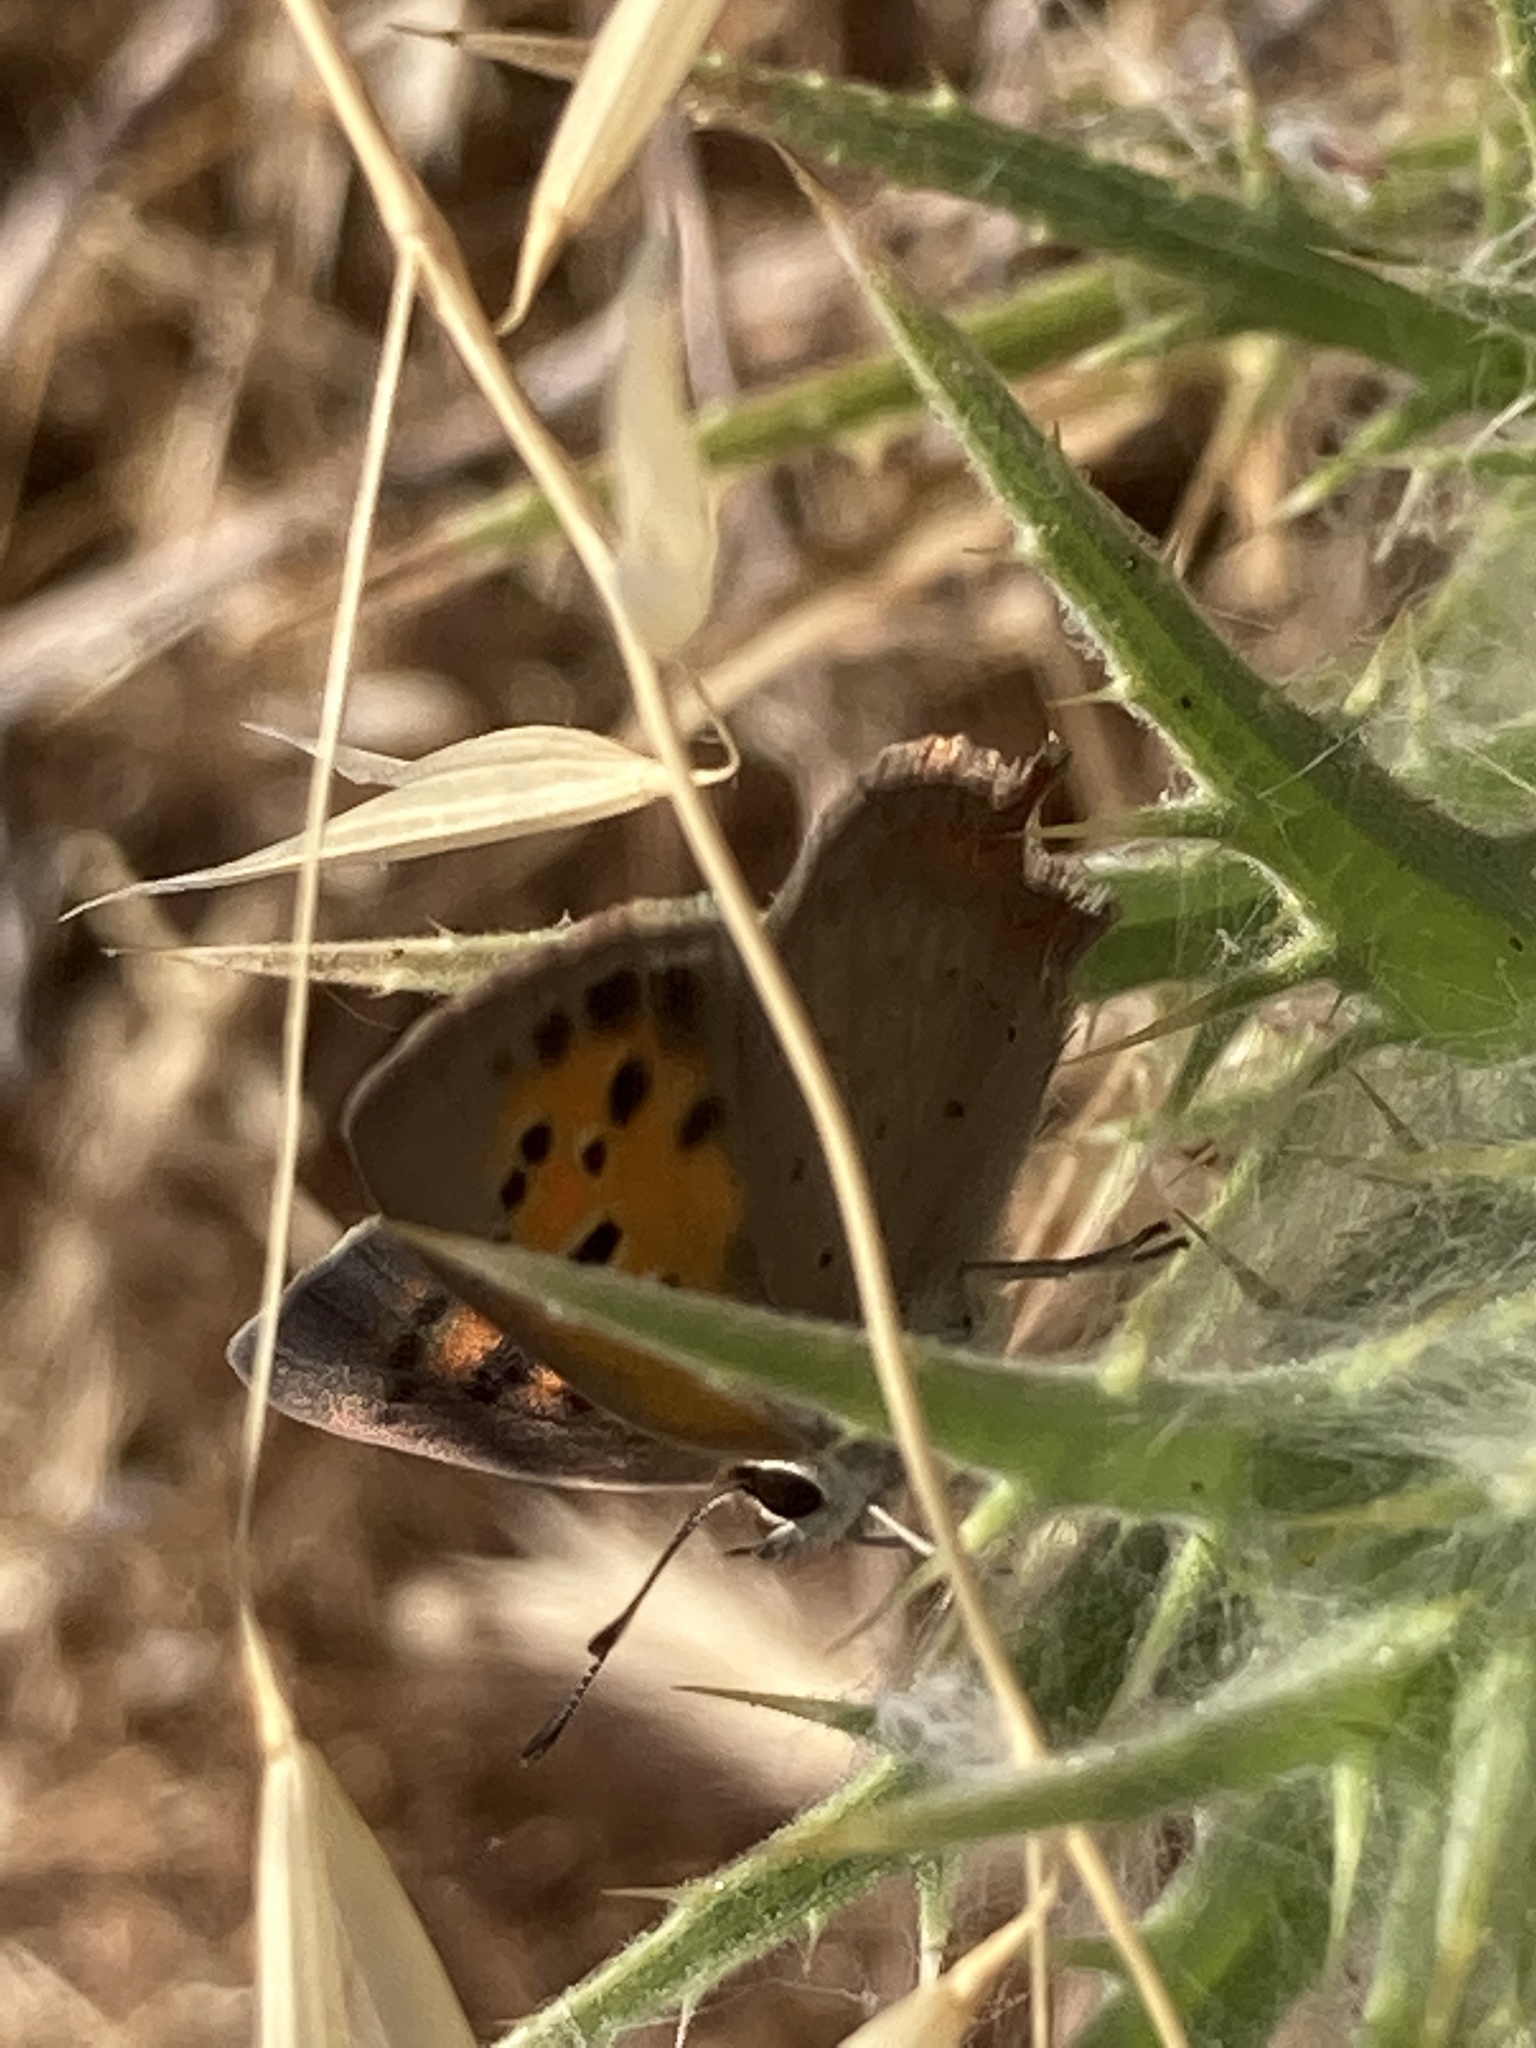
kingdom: Animalia
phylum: Arthropoda
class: Insecta
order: Lepidoptera
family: Lycaenidae
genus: Lycaena
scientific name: Lycaena phlaeas
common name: Small copper
